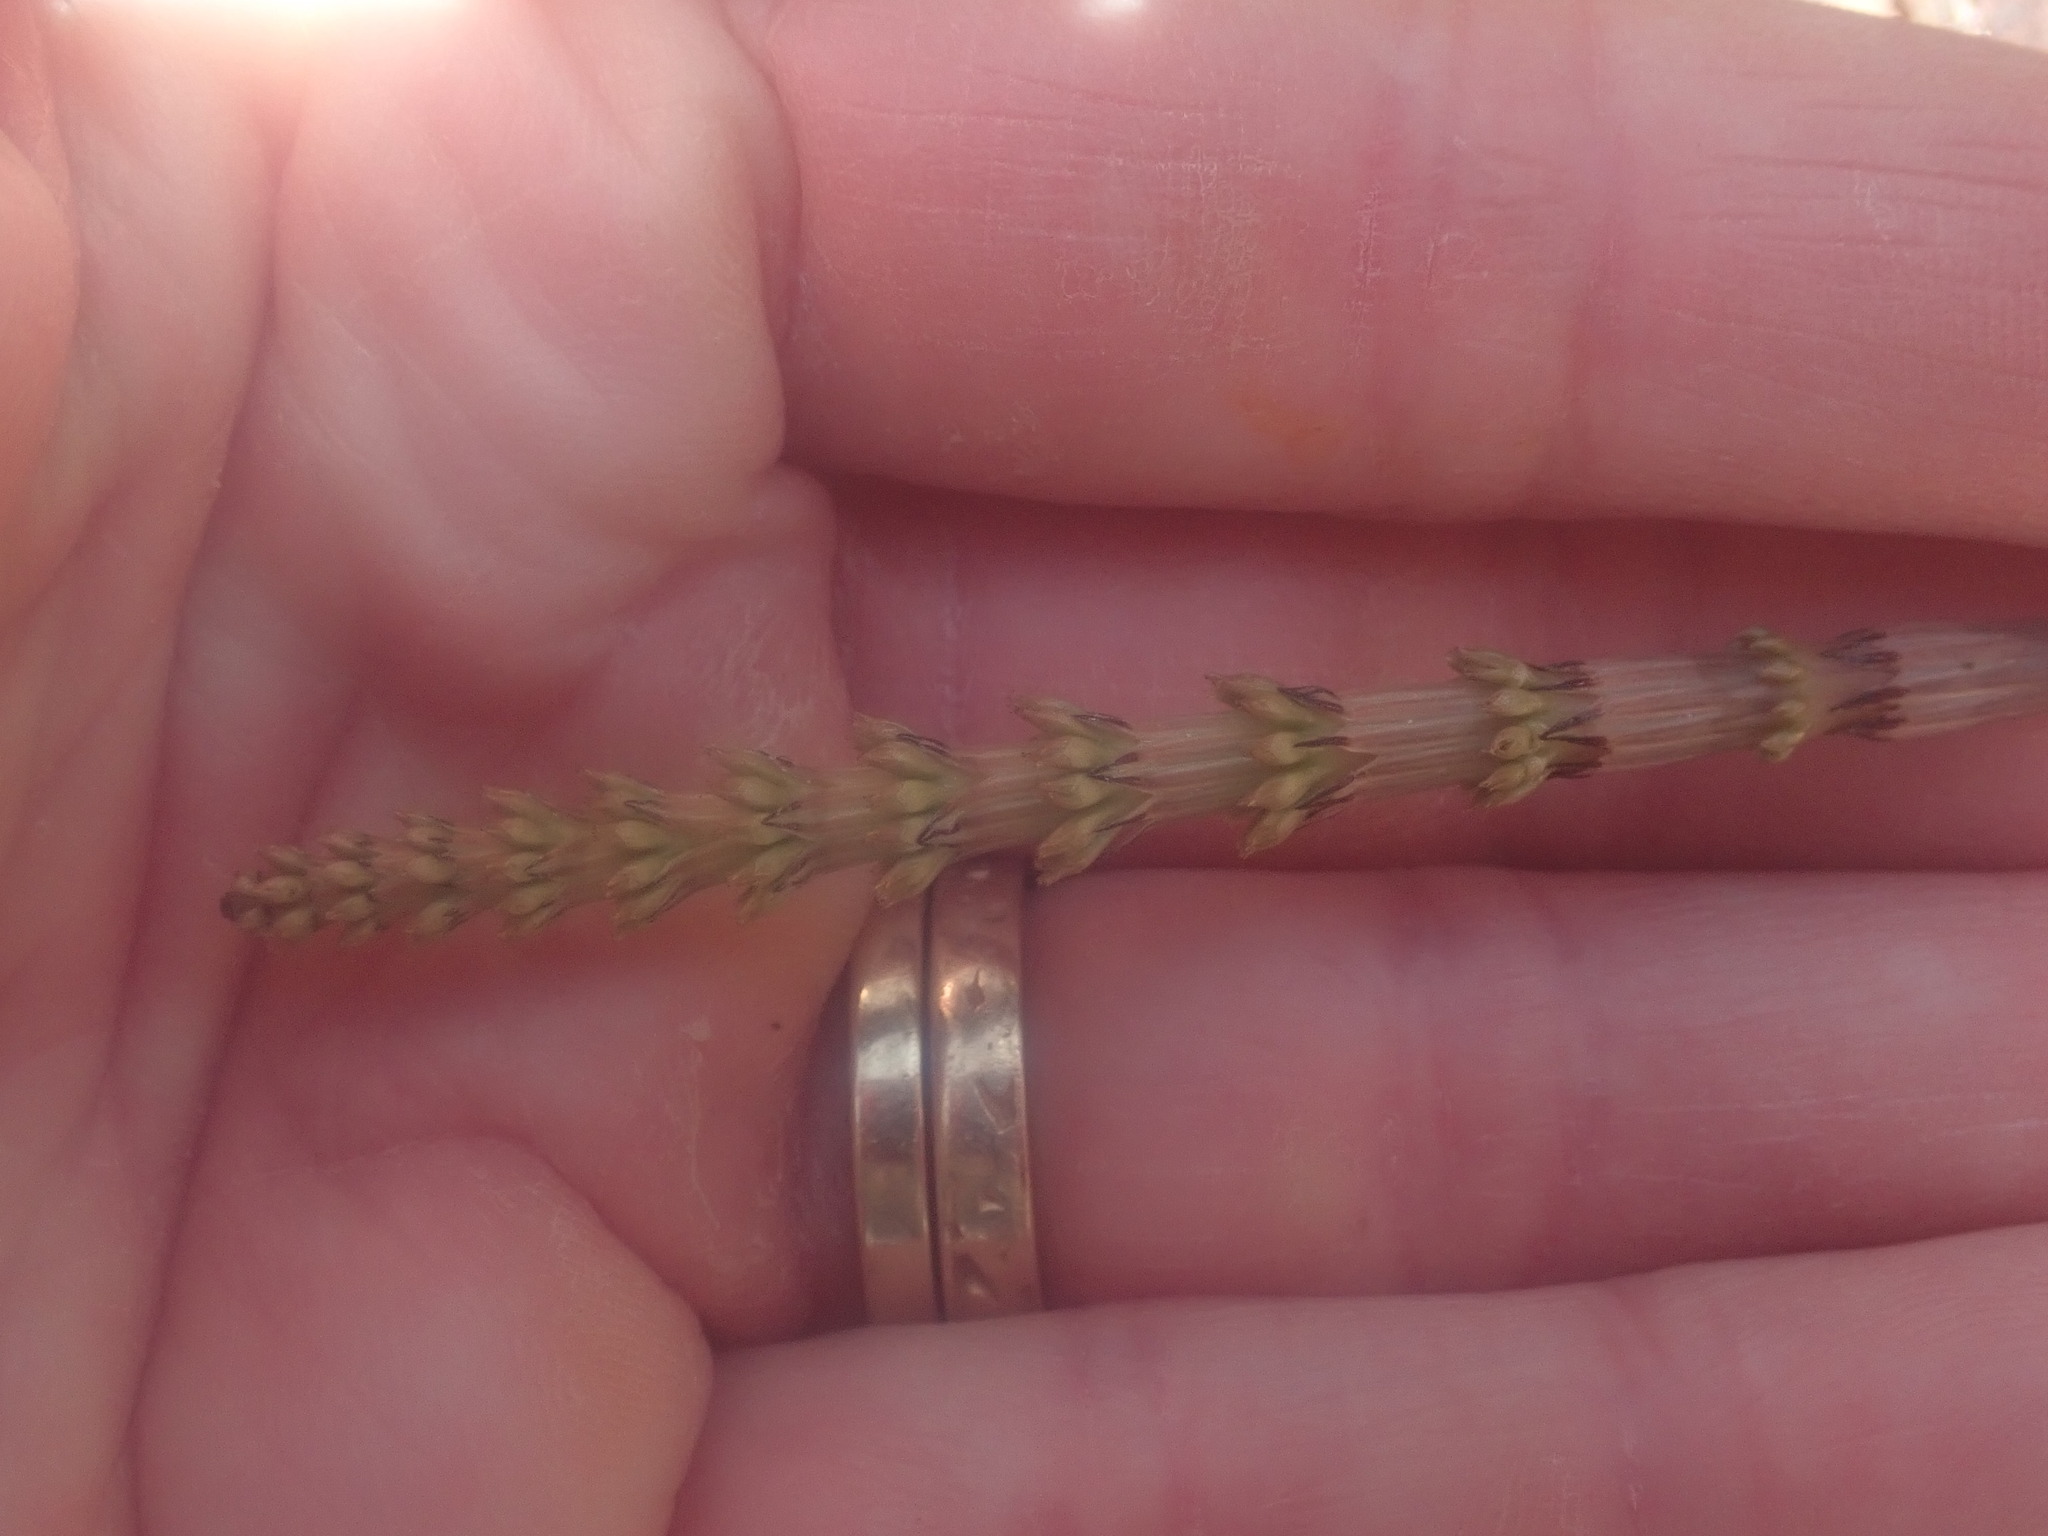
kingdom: Plantae
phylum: Tracheophyta
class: Polypodiopsida
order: Equisetales
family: Equisetaceae
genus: Equisetum
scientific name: Equisetum arvense
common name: Field horsetail
